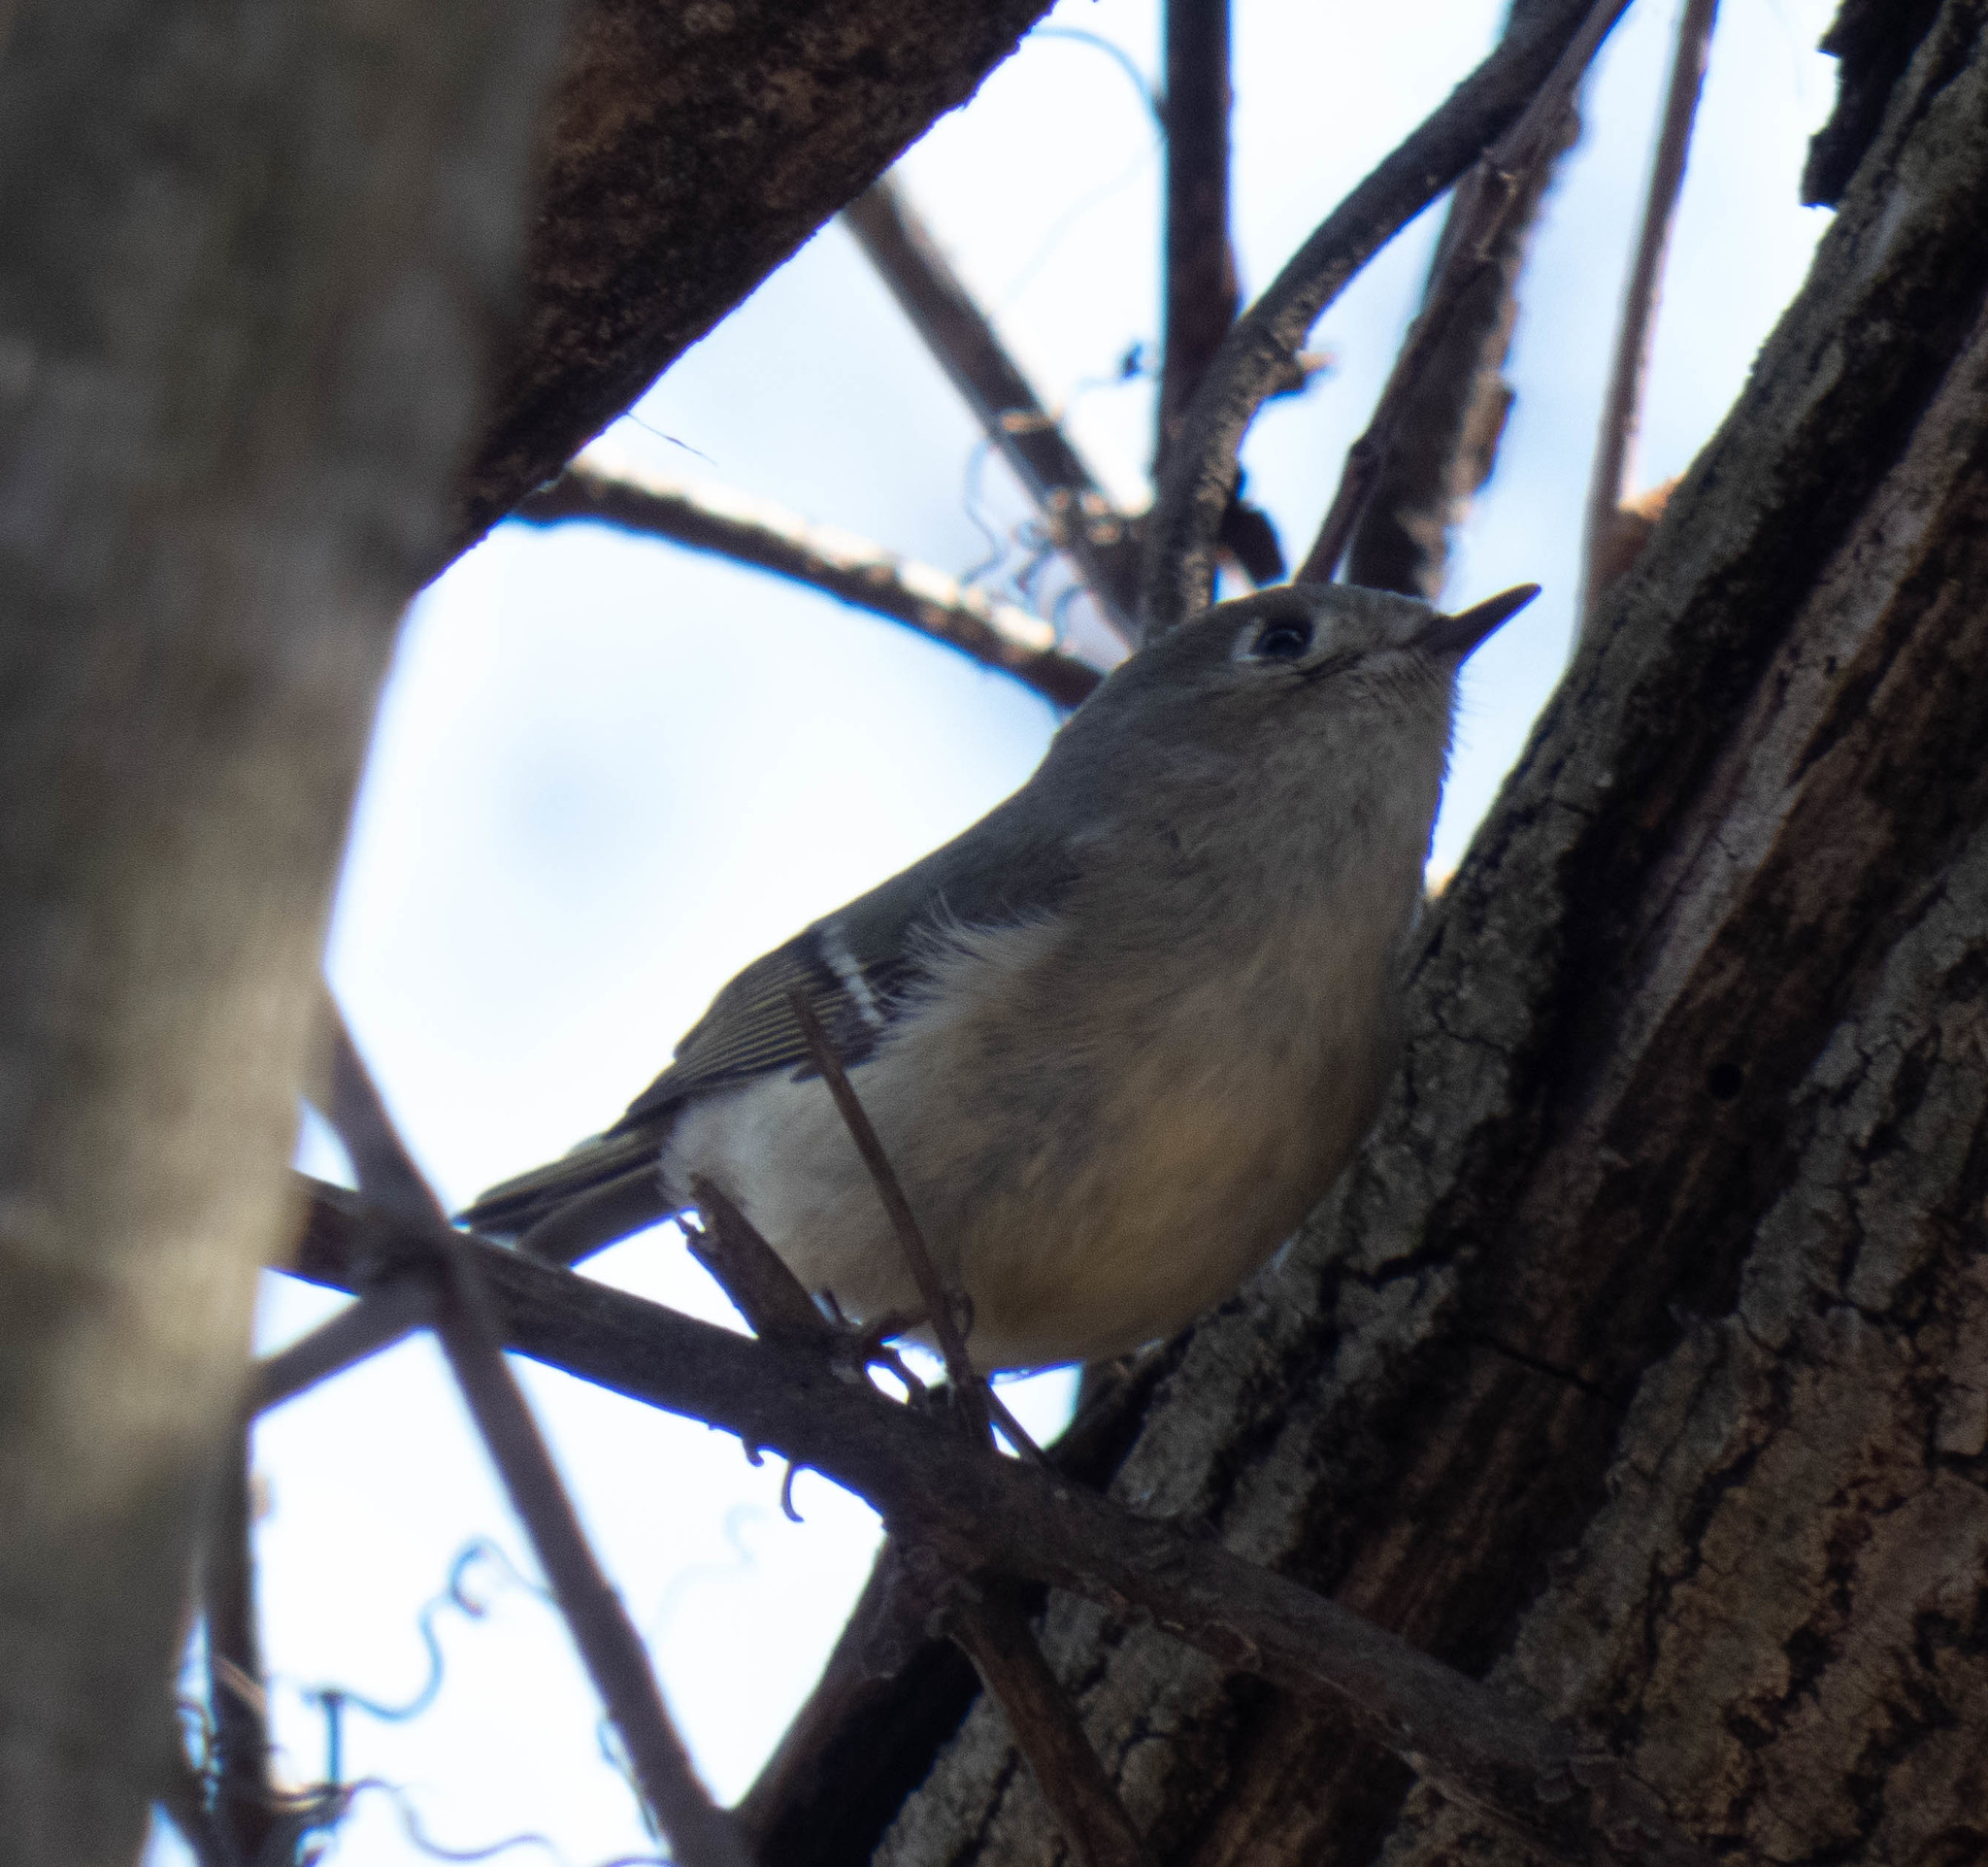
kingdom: Animalia
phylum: Chordata
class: Aves
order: Passeriformes
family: Regulidae
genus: Regulus
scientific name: Regulus calendula
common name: Ruby-crowned kinglet
